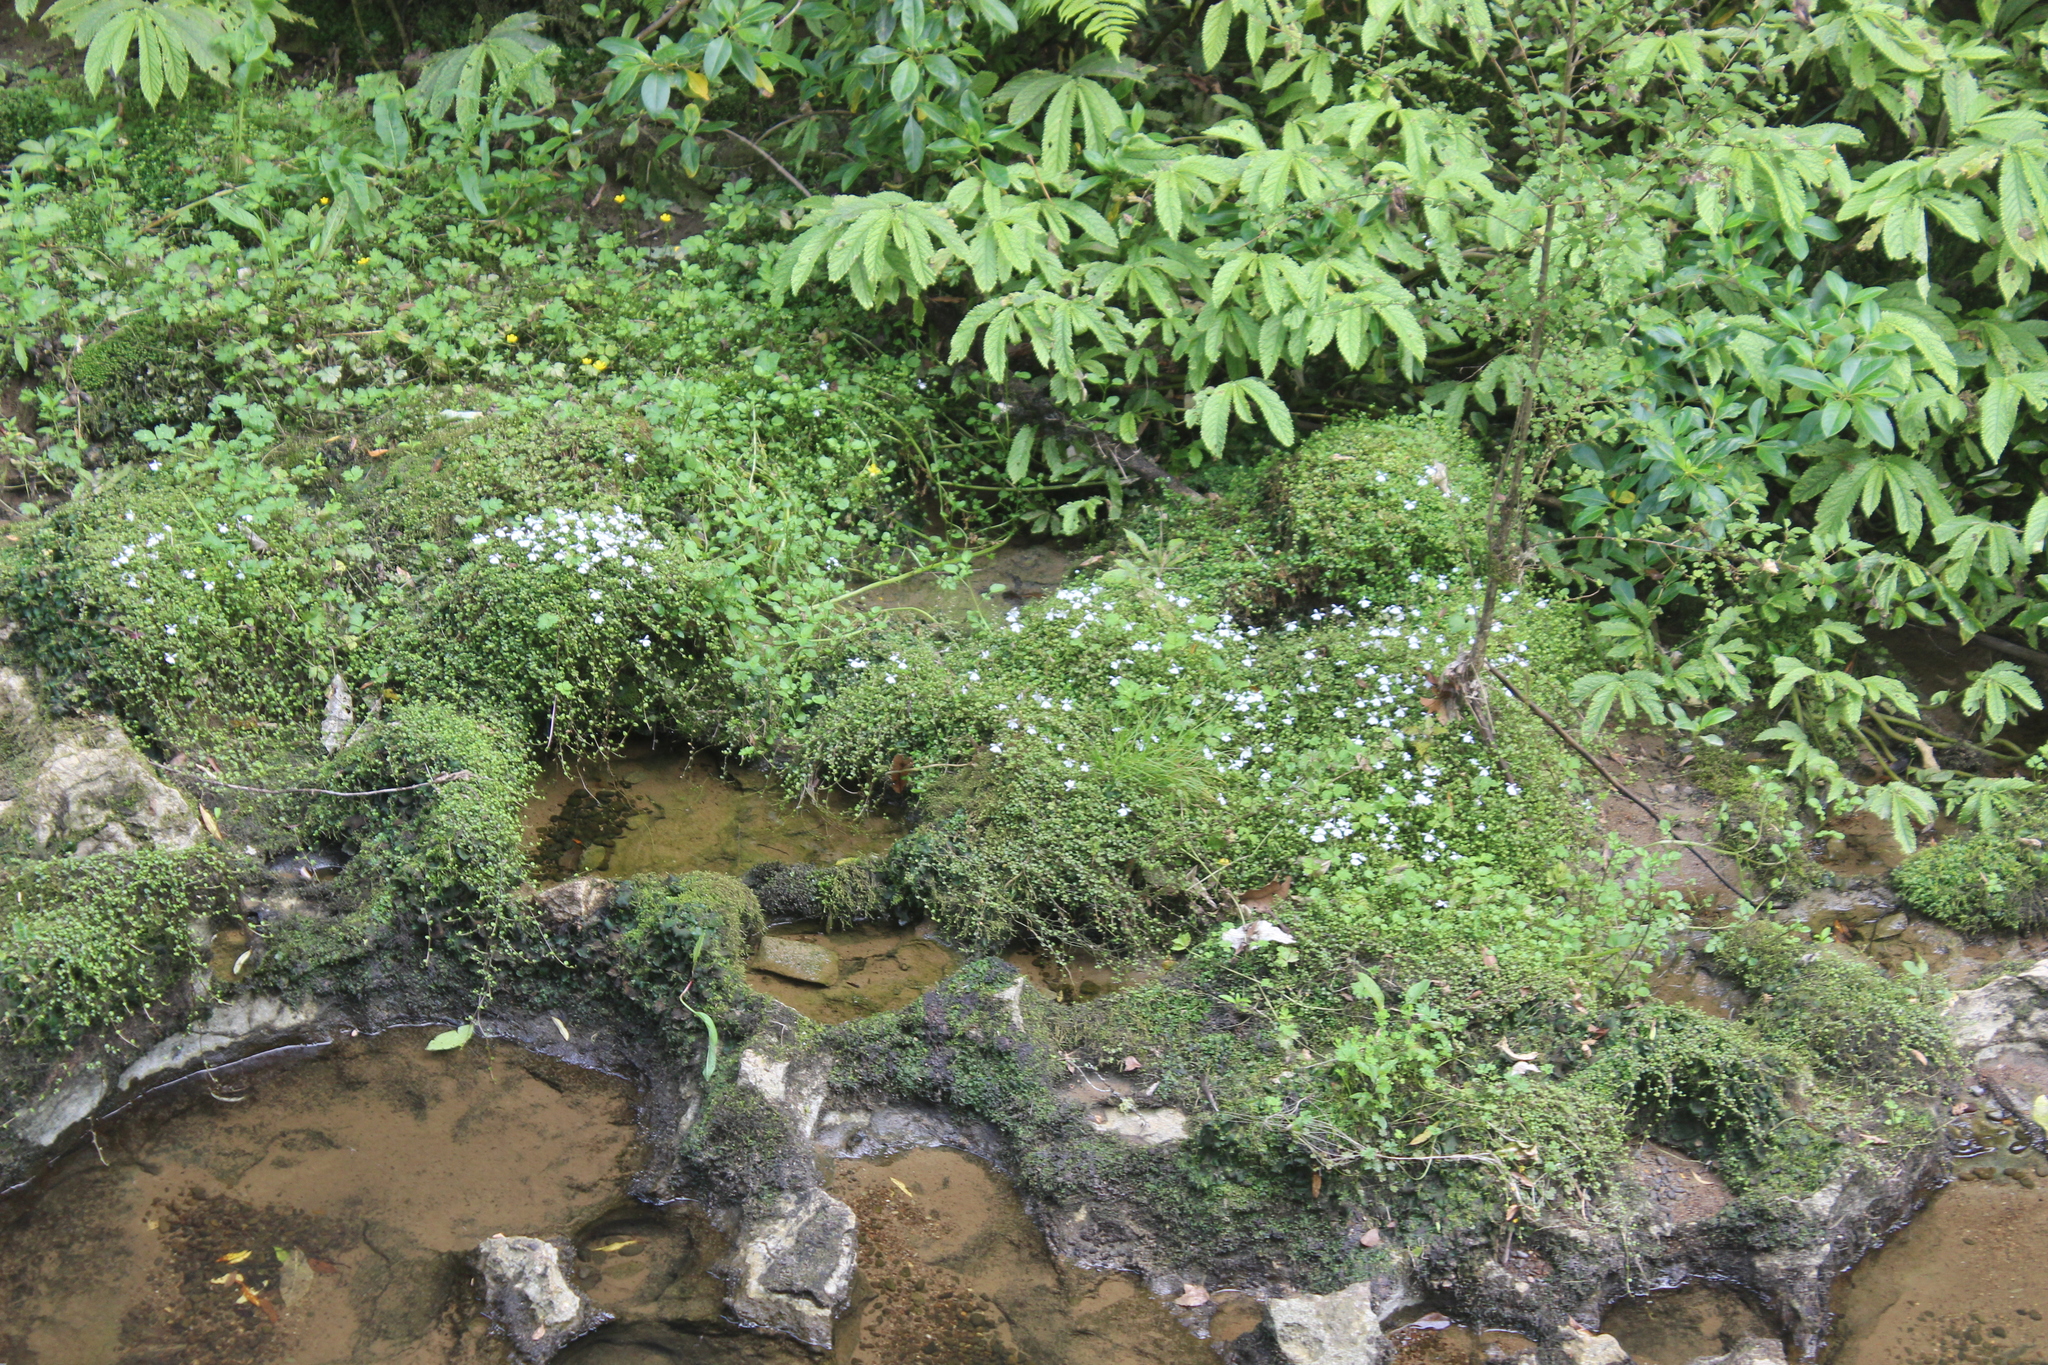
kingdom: Plantae
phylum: Tracheophyta
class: Magnoliopsida
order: Asterales
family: Campanulaceae
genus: Lobelia
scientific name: Lobelia angulata
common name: Lawn lobelia
